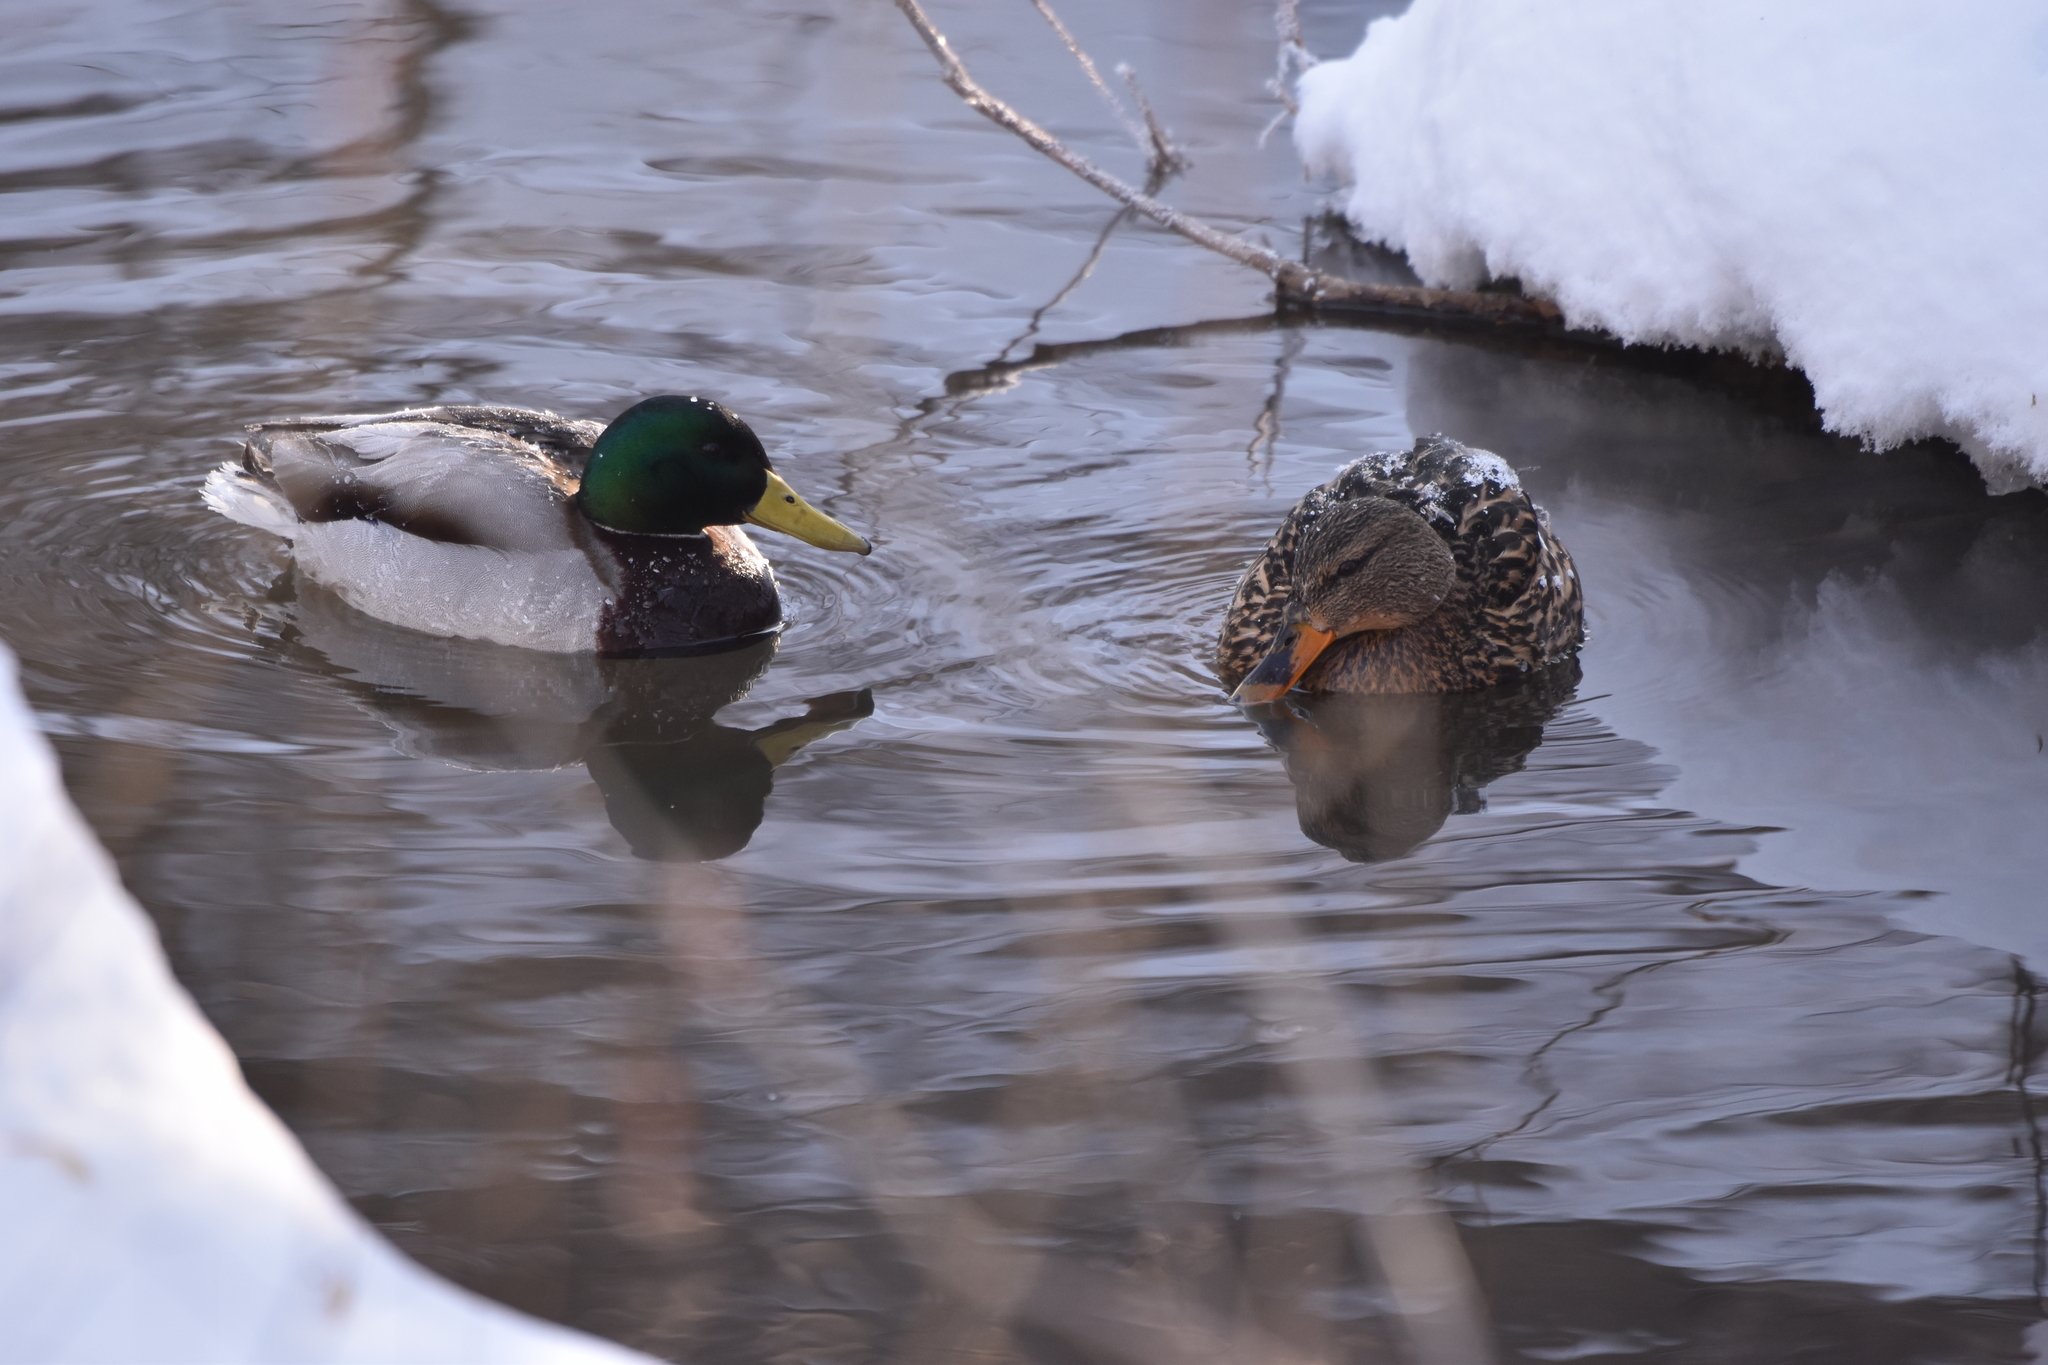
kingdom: Animalia
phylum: Chordata
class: Aves
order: Anseriformes
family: Anatidae
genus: Anas
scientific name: Anas platyrhynchos
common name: Mallard
